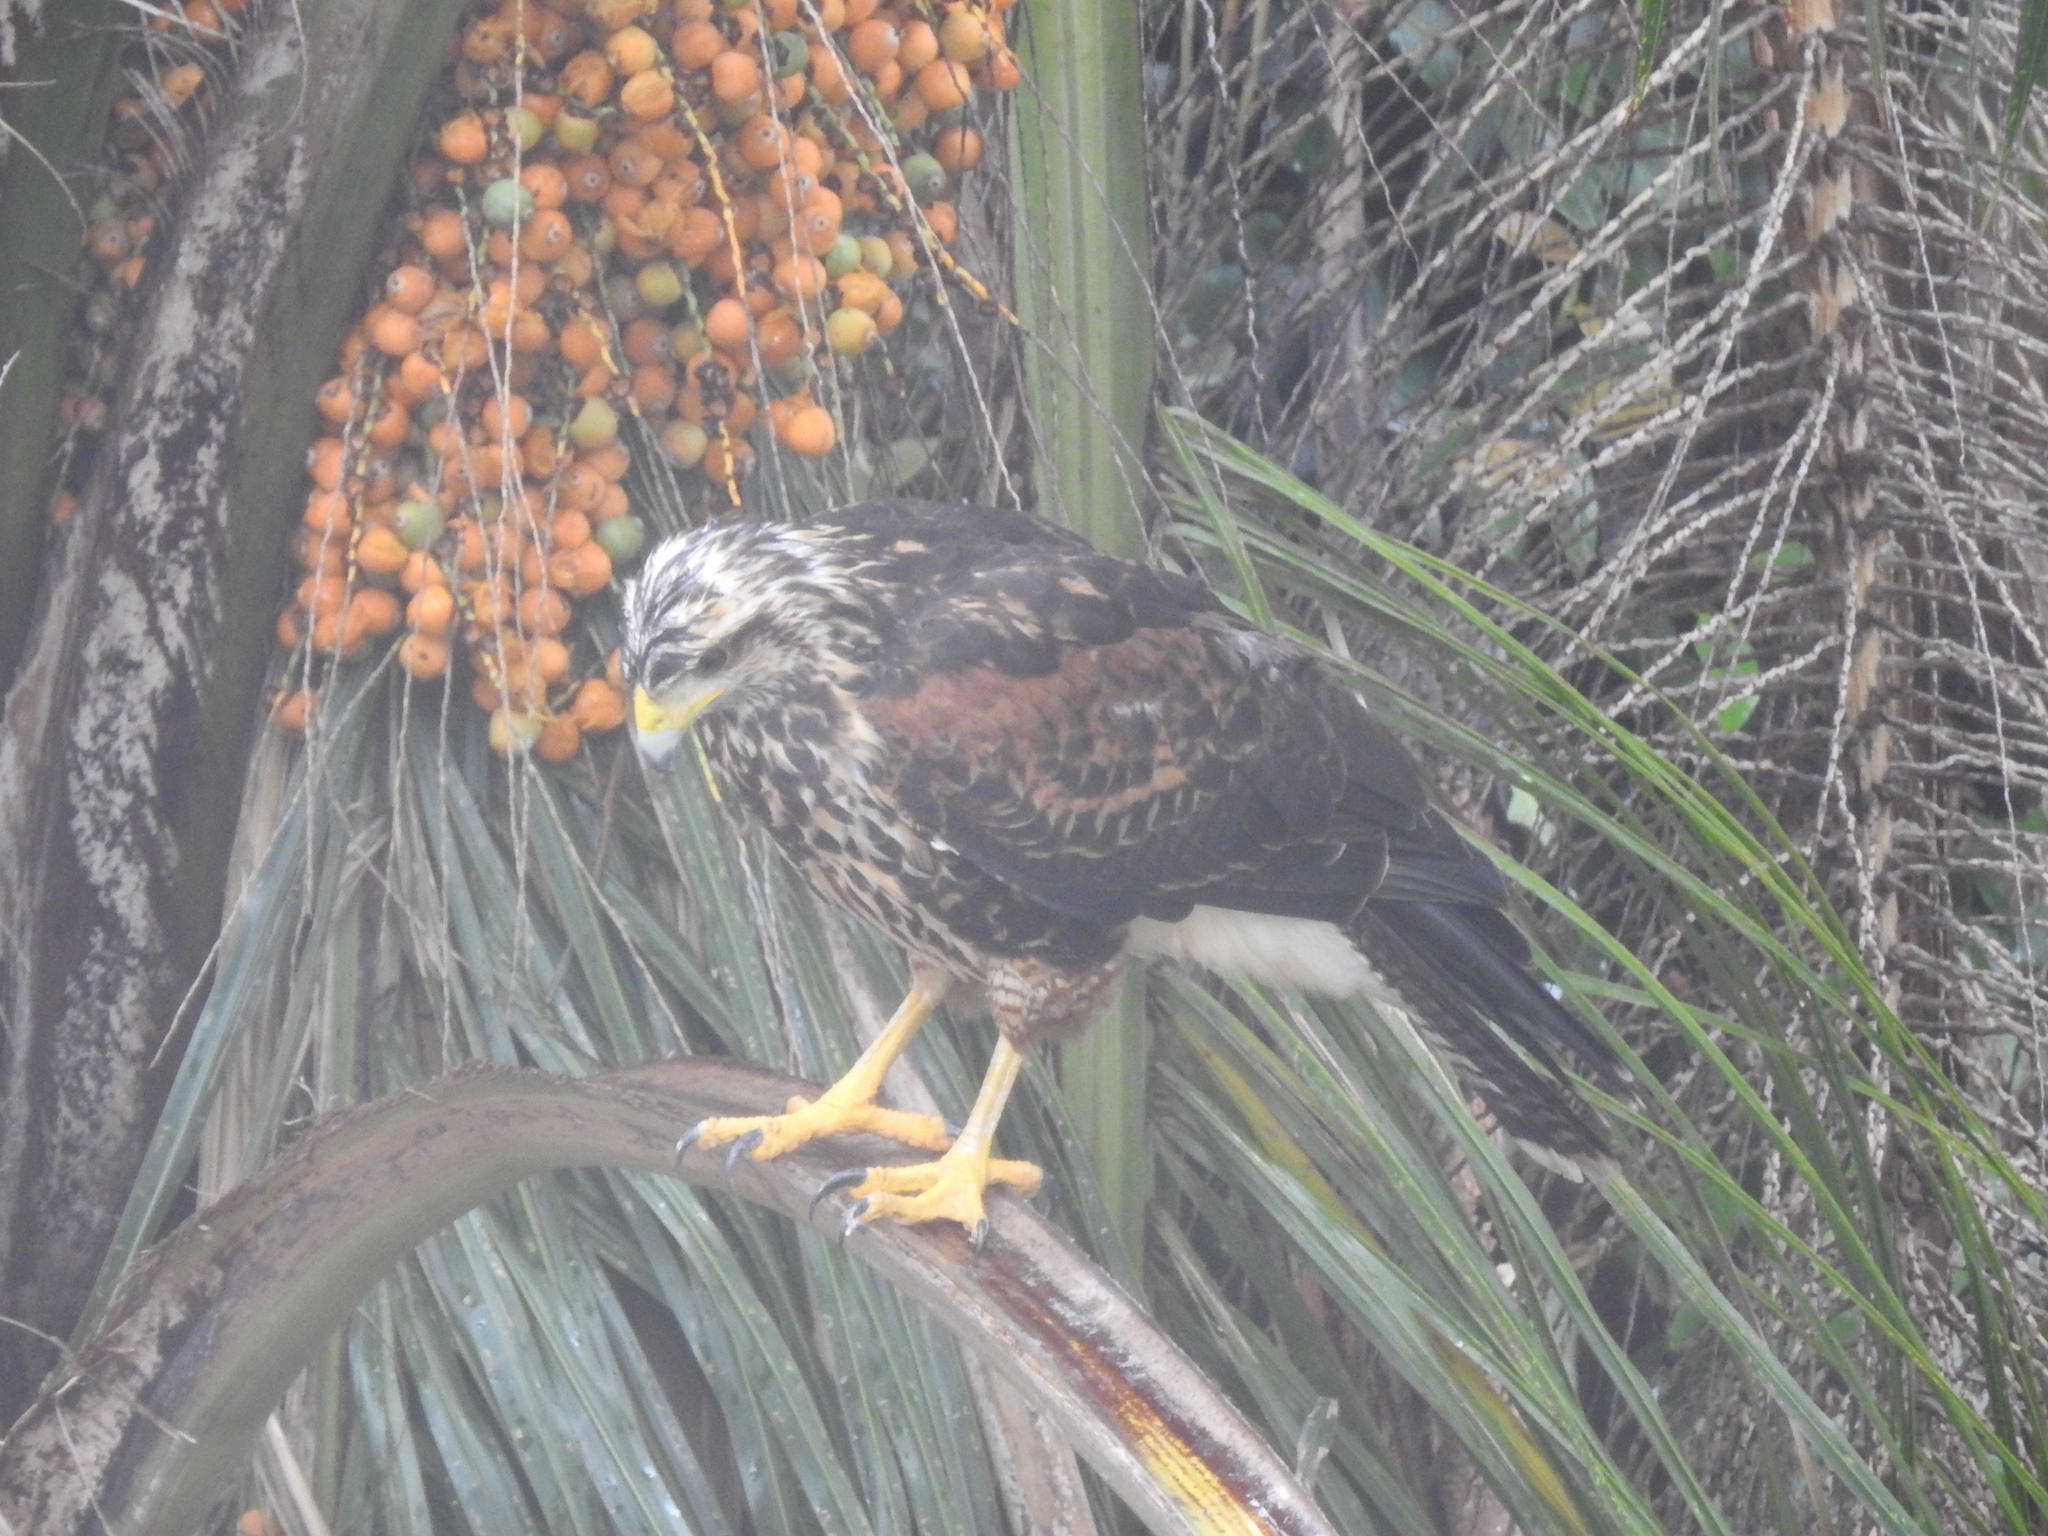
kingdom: Animalia
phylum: Chordata
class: Aves
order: Accipitriformes
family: Accipitridae
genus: Parabuteo
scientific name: Parabuteo unicinctus
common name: Harris's hawk
